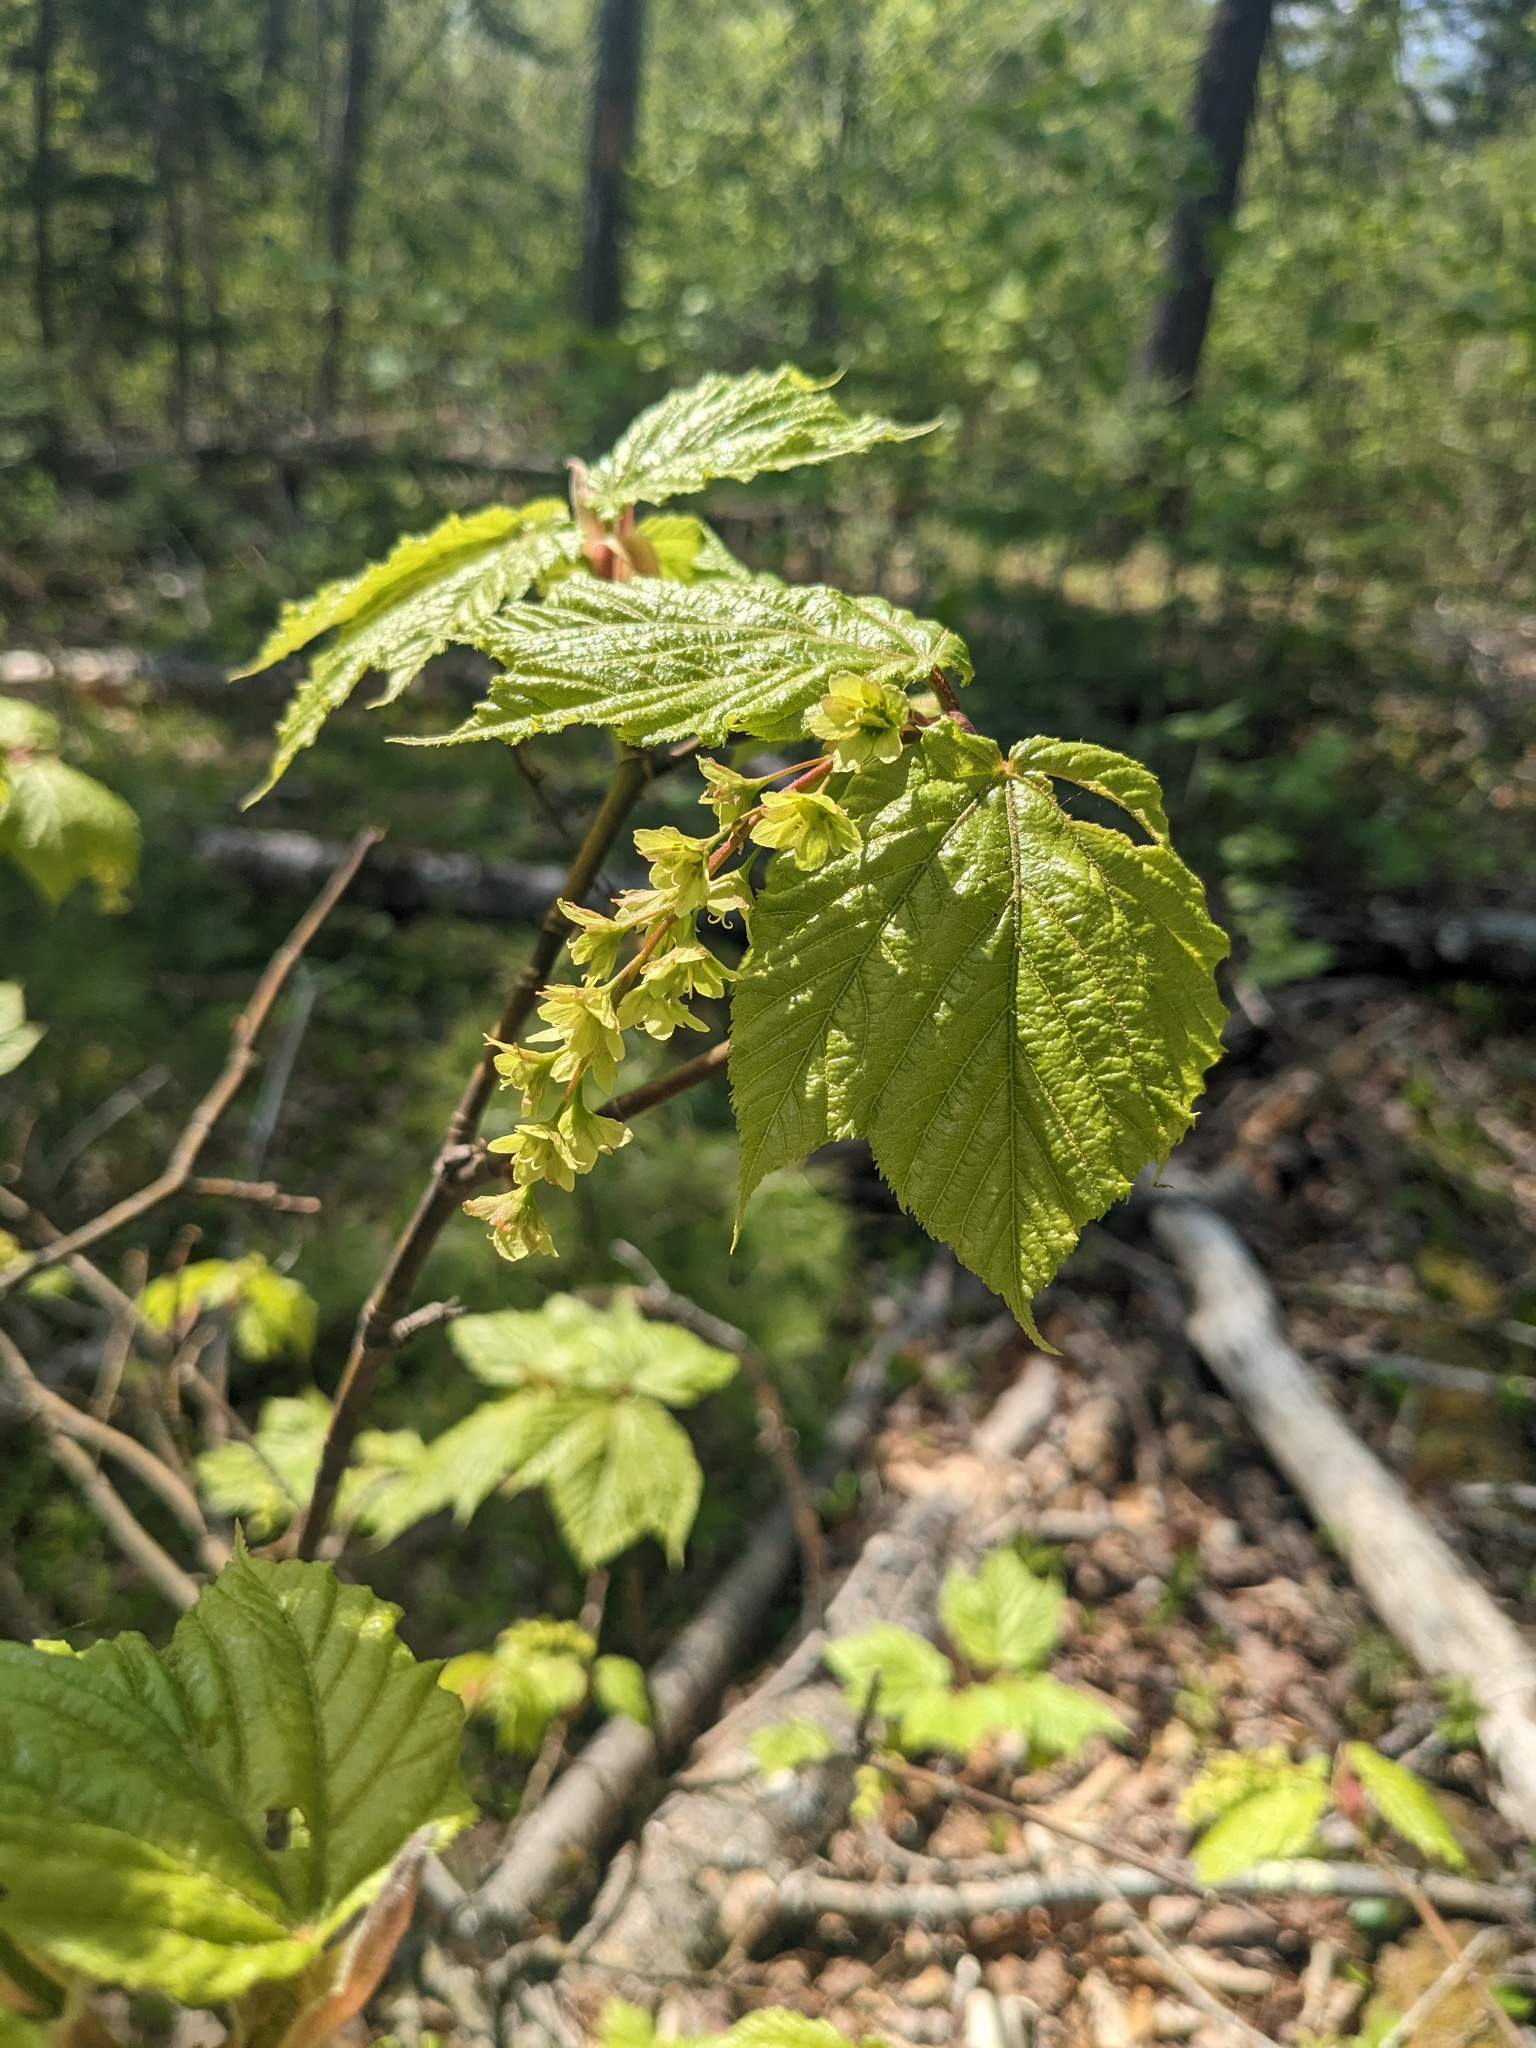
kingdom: Plantae
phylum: Tracheophyta
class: Magnoliopsida
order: Sapindales
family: Sapindaceae
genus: Acer
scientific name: Acer pensylvanicum
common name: Moosewood
